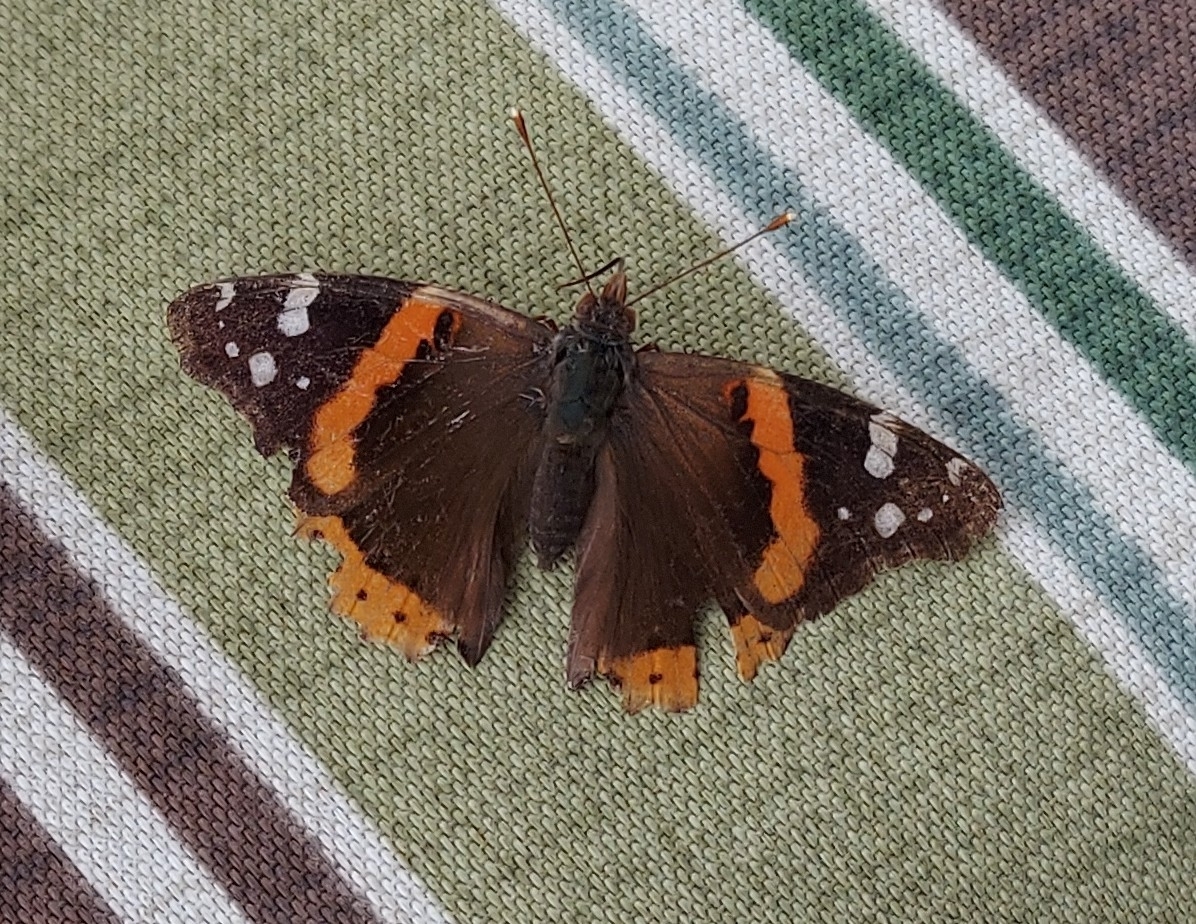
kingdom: Animalia
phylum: Arthropoda
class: Insecta
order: Lepidoptera
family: Nymphalidae
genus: Vanessa
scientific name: Vanessa atalanta
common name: Red admiral
